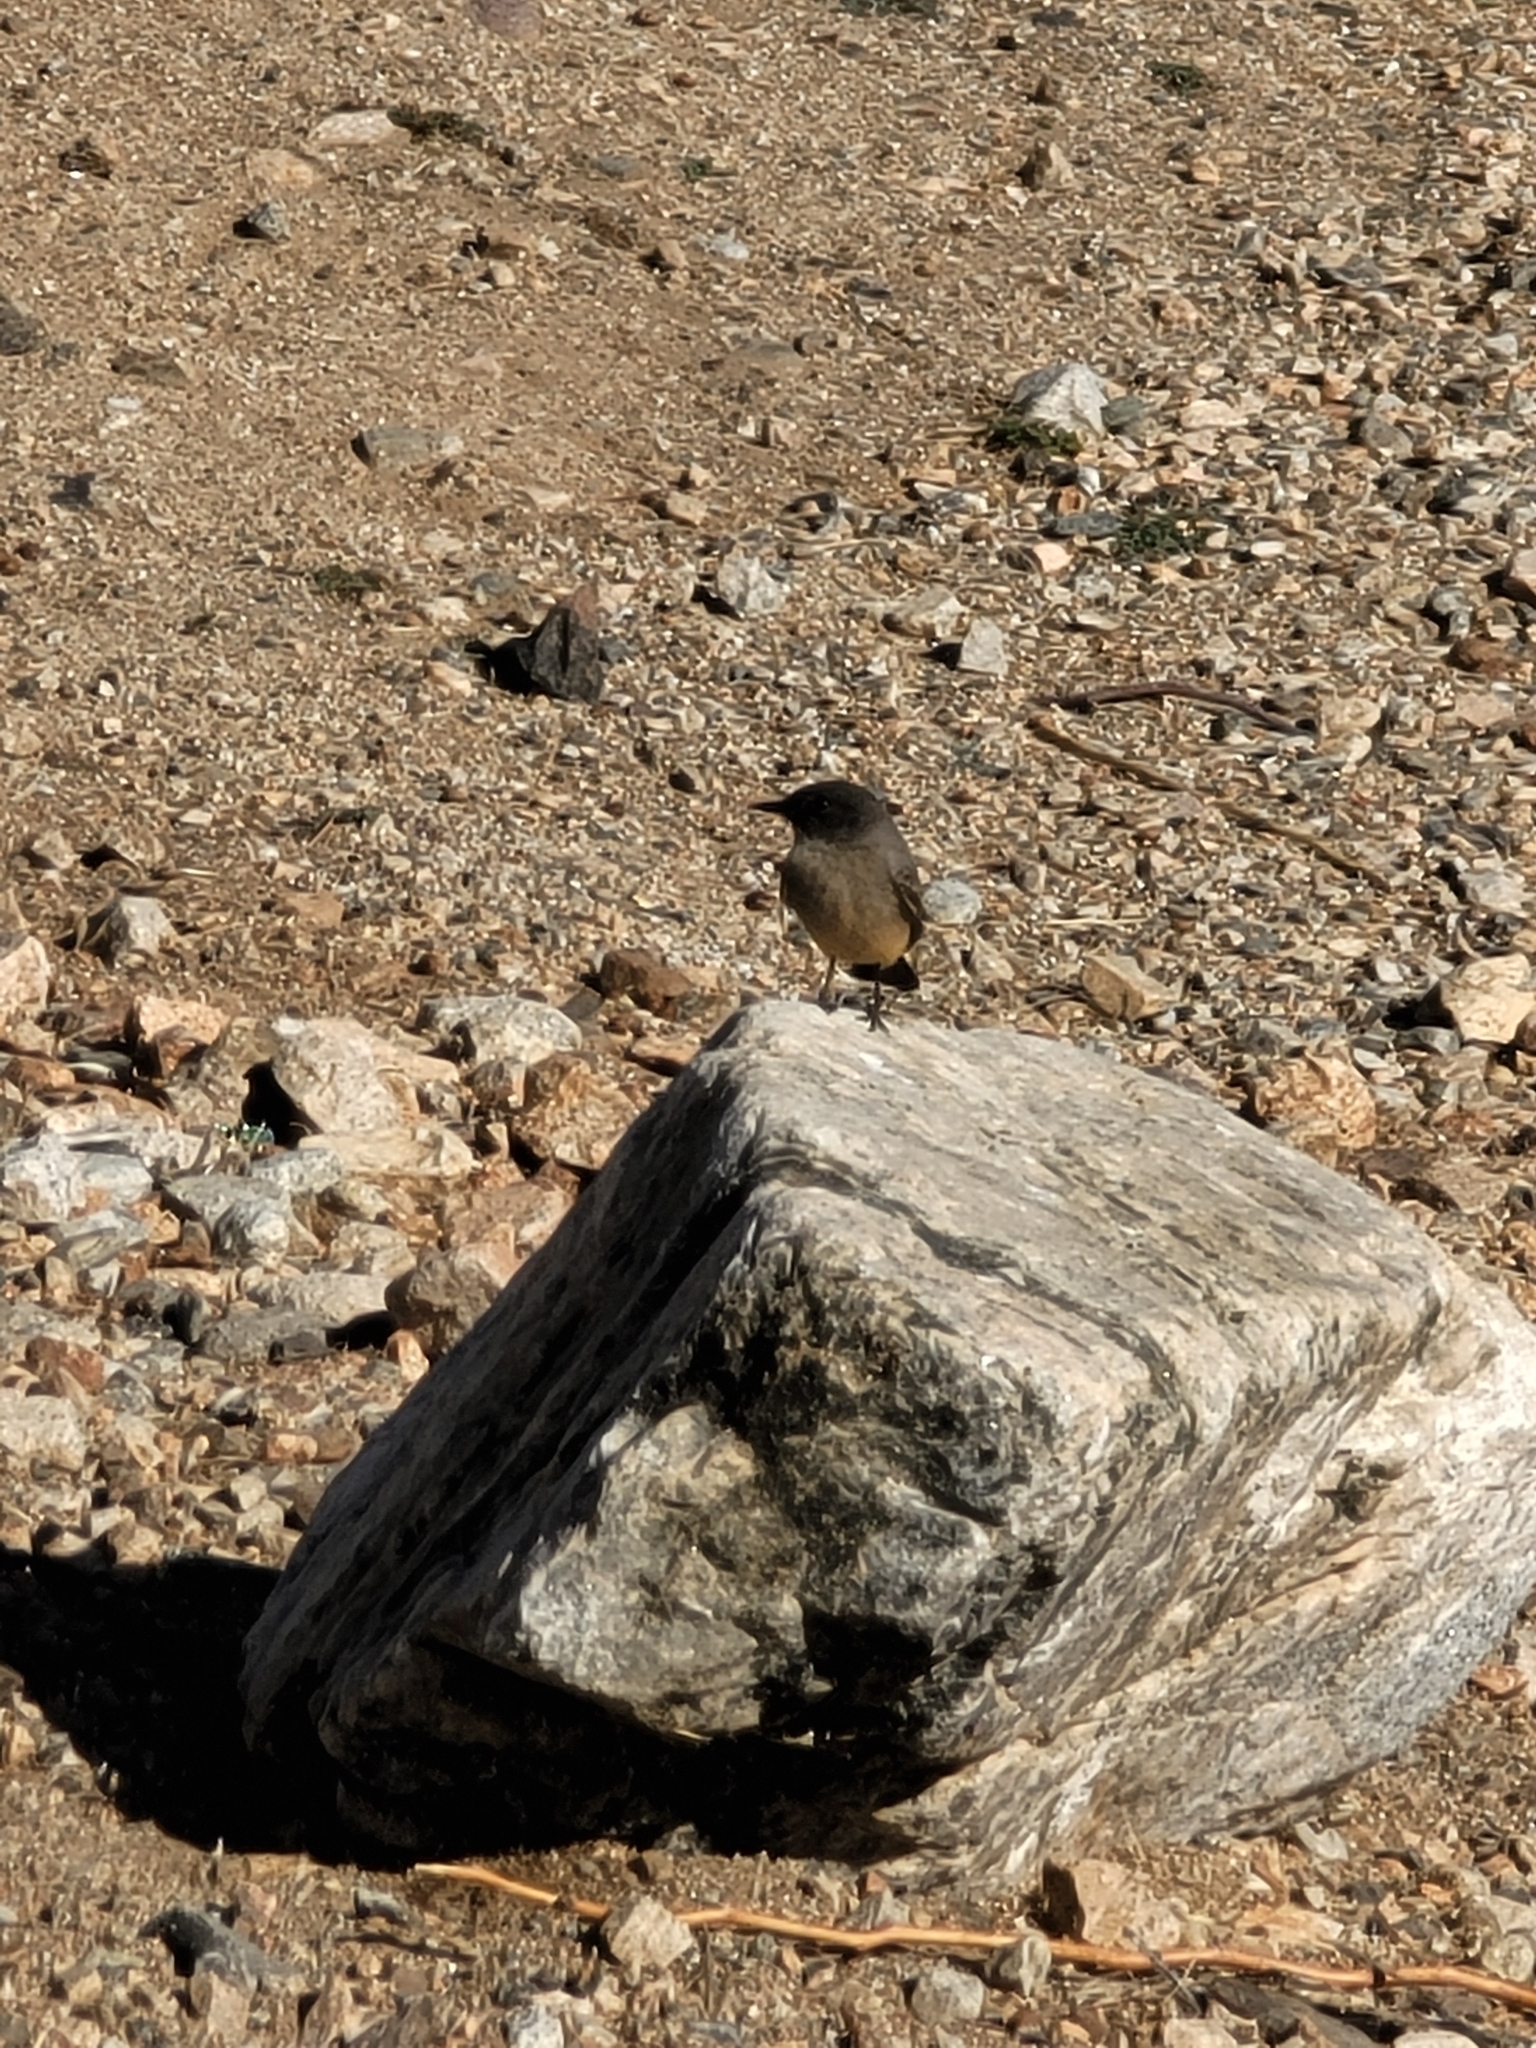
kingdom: Animalia
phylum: Chordata
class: Aves
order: Passeriformes
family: Tyrannidae
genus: Sayornis
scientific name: Sayornis saya
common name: Say's phoebe
